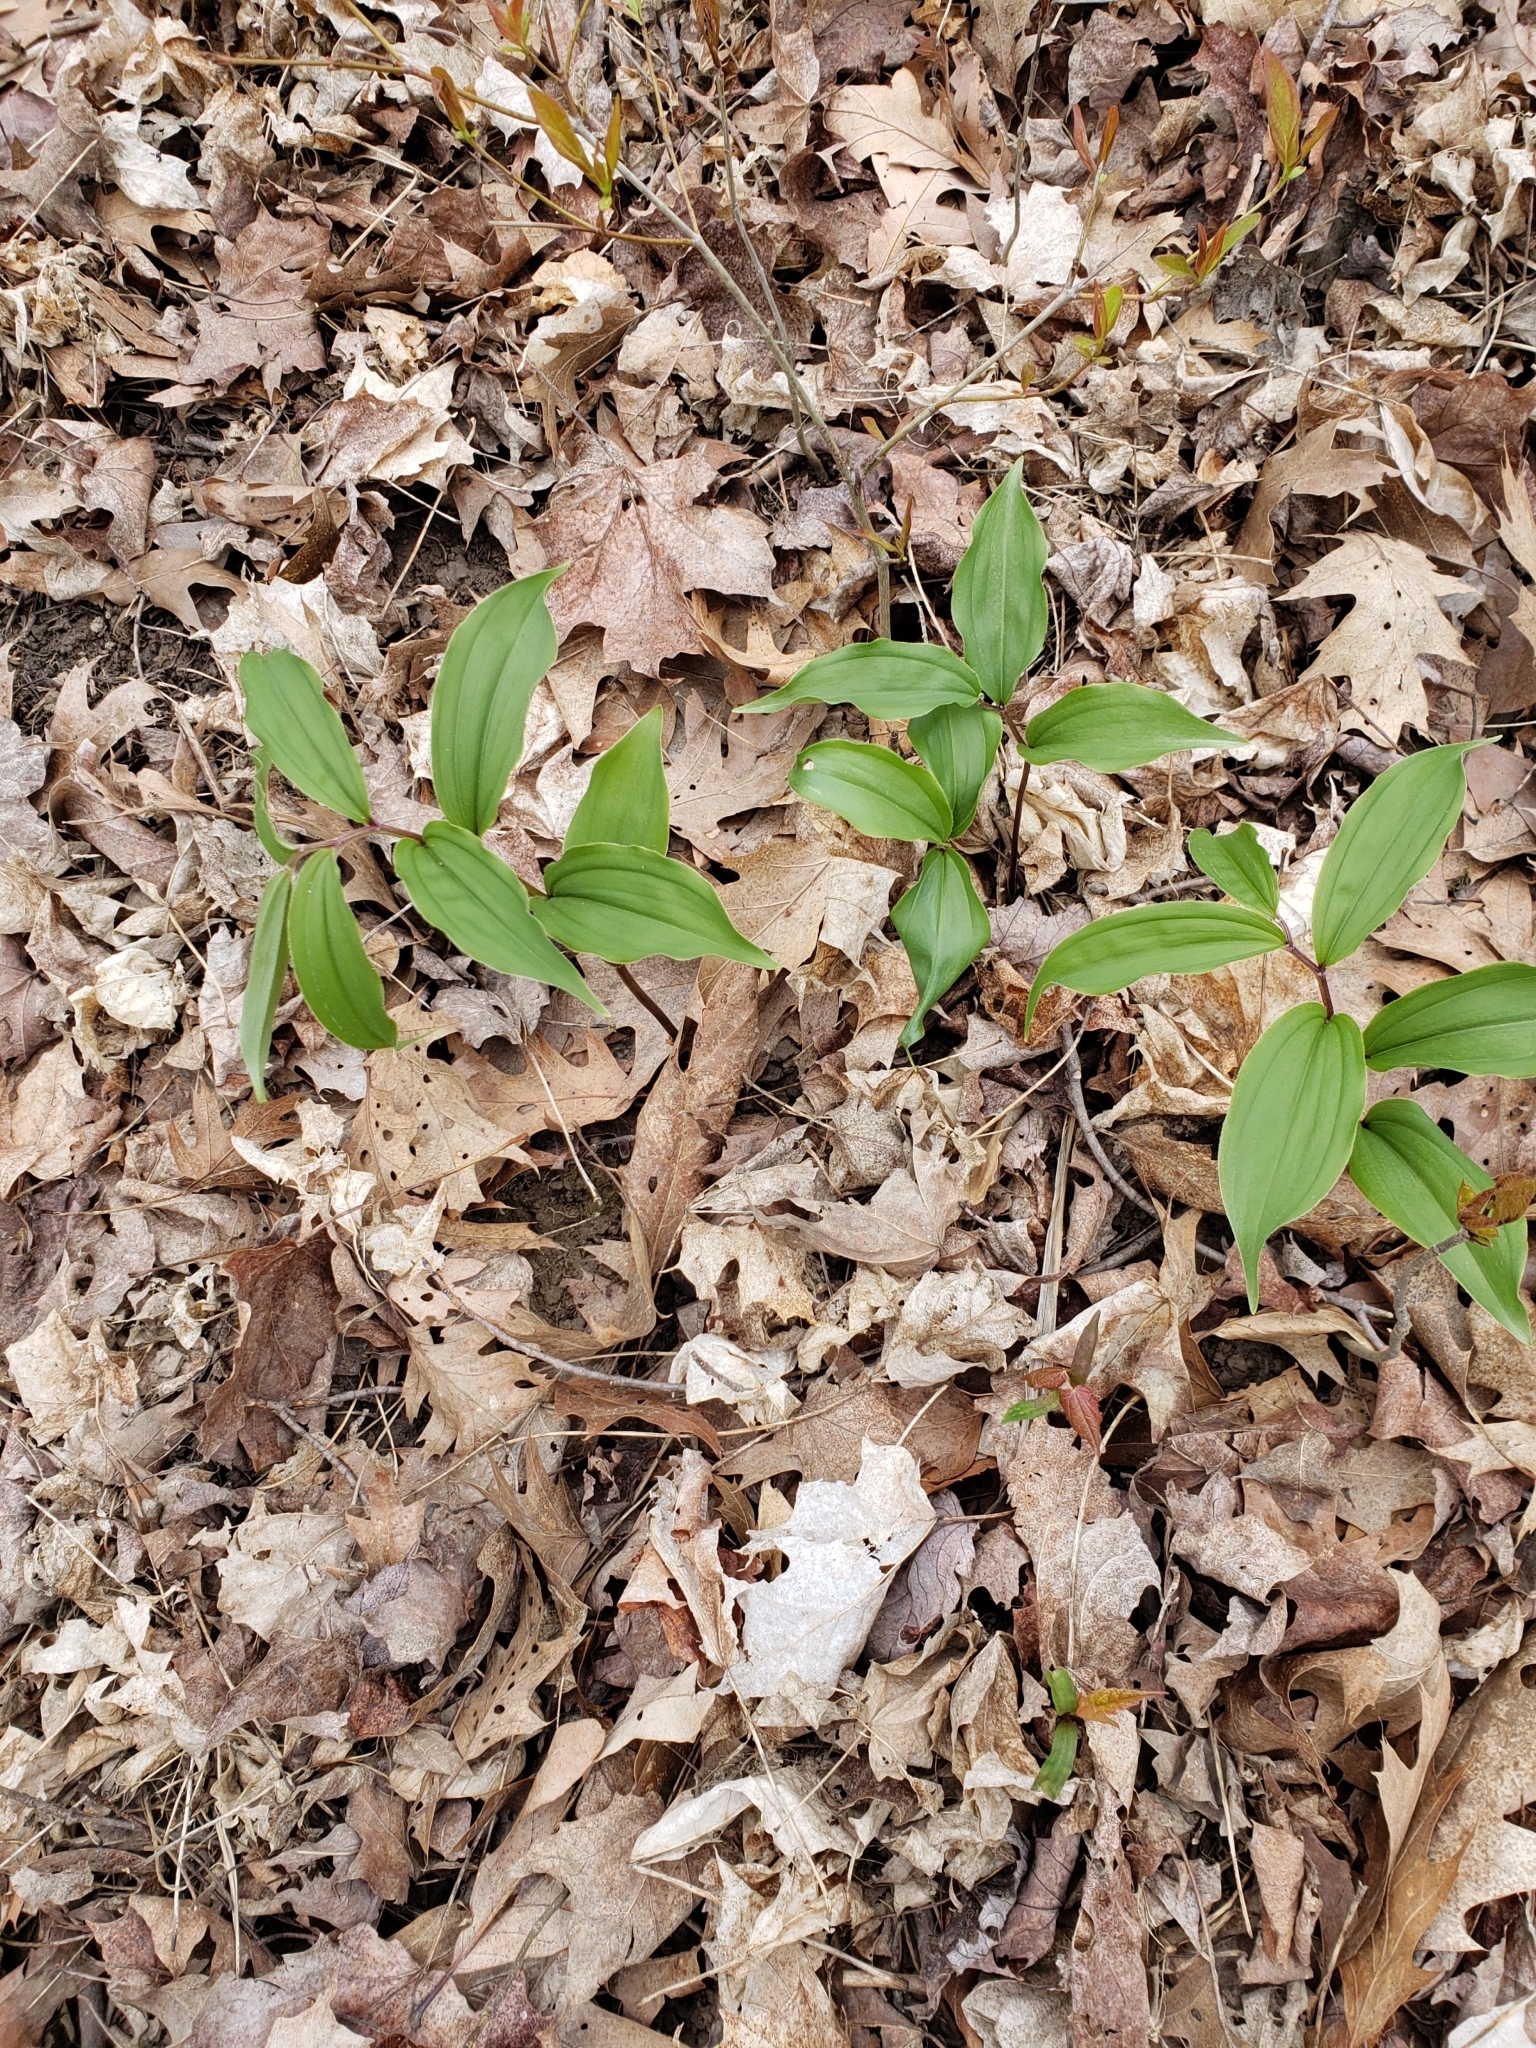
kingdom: Plantae
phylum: Tracheophyta
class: Liliopsida
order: Asparagales
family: Asparagaceae
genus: Maianthemum
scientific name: Maianthemum racemosum
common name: False spikenard
